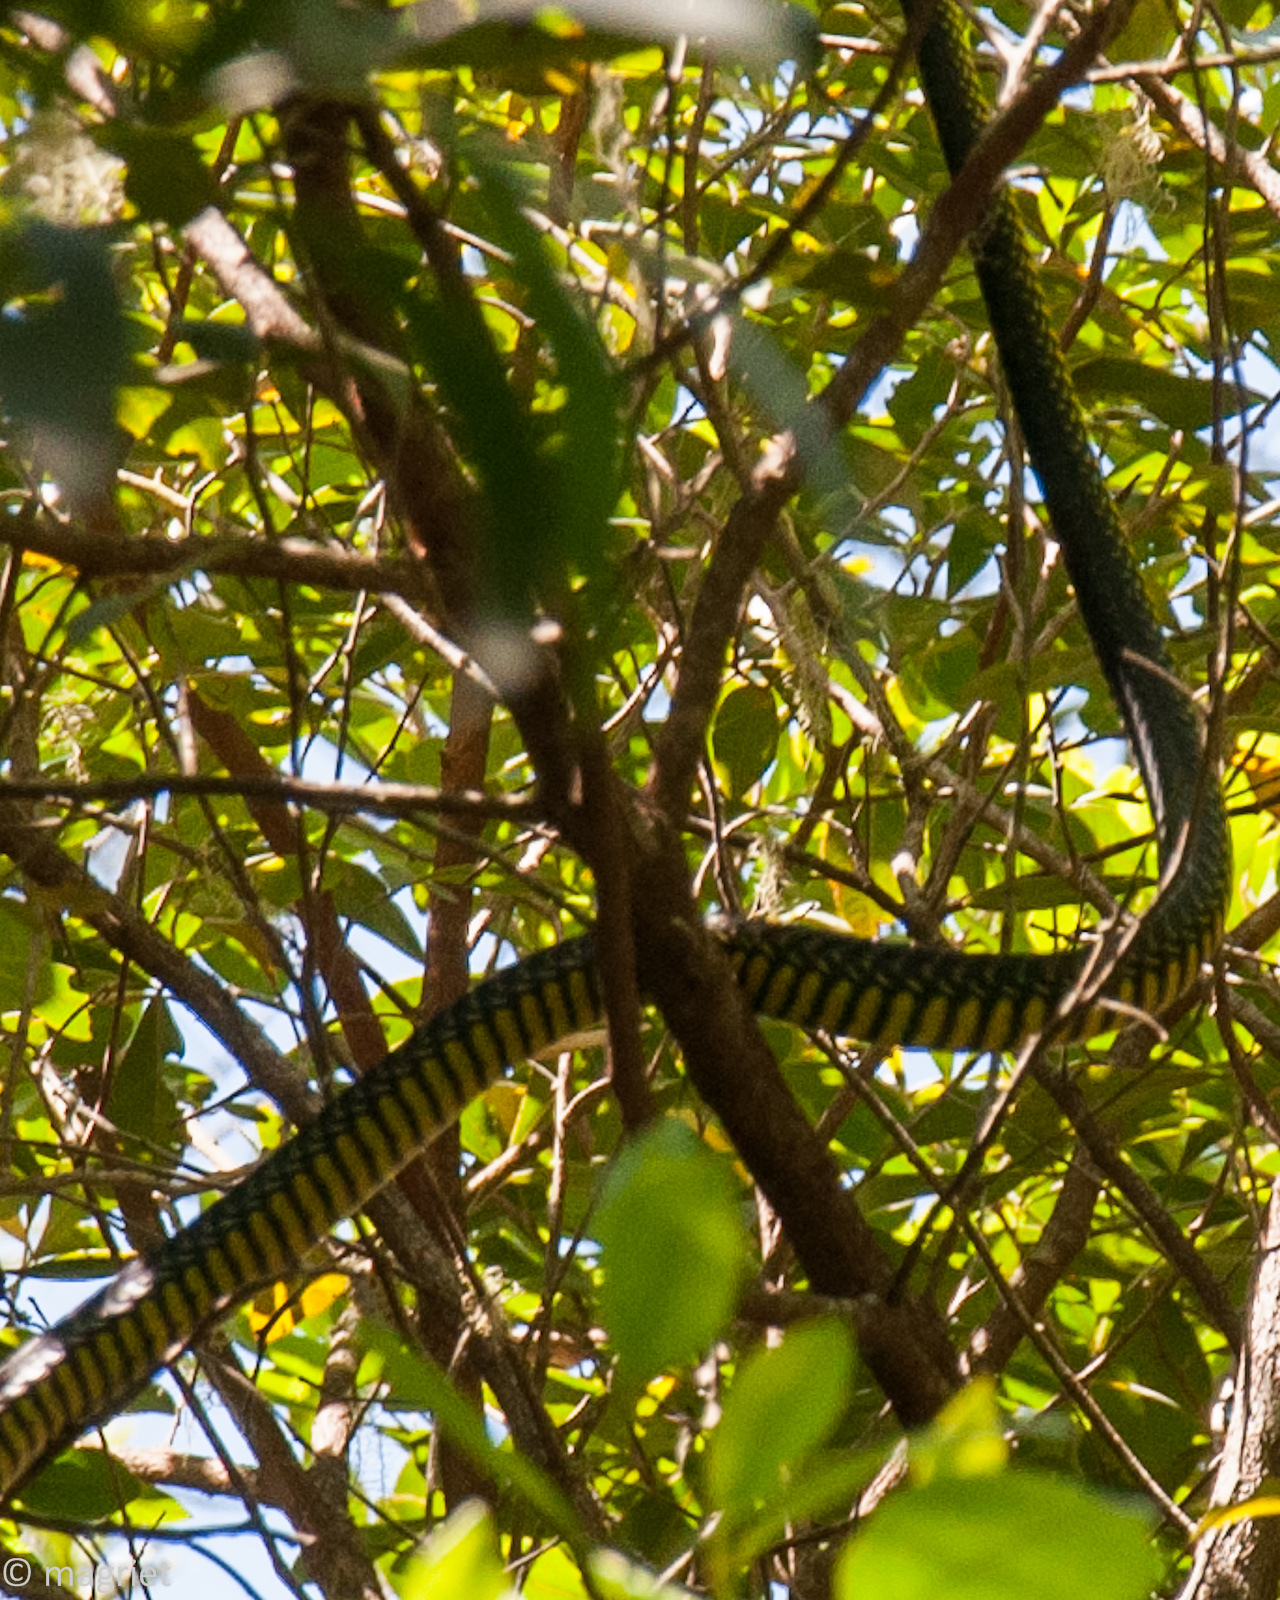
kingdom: Animalia
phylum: Chordata
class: Squamata
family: Colubridae
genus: Dispholidus
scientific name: Dispholidus typus
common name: Boomslang
